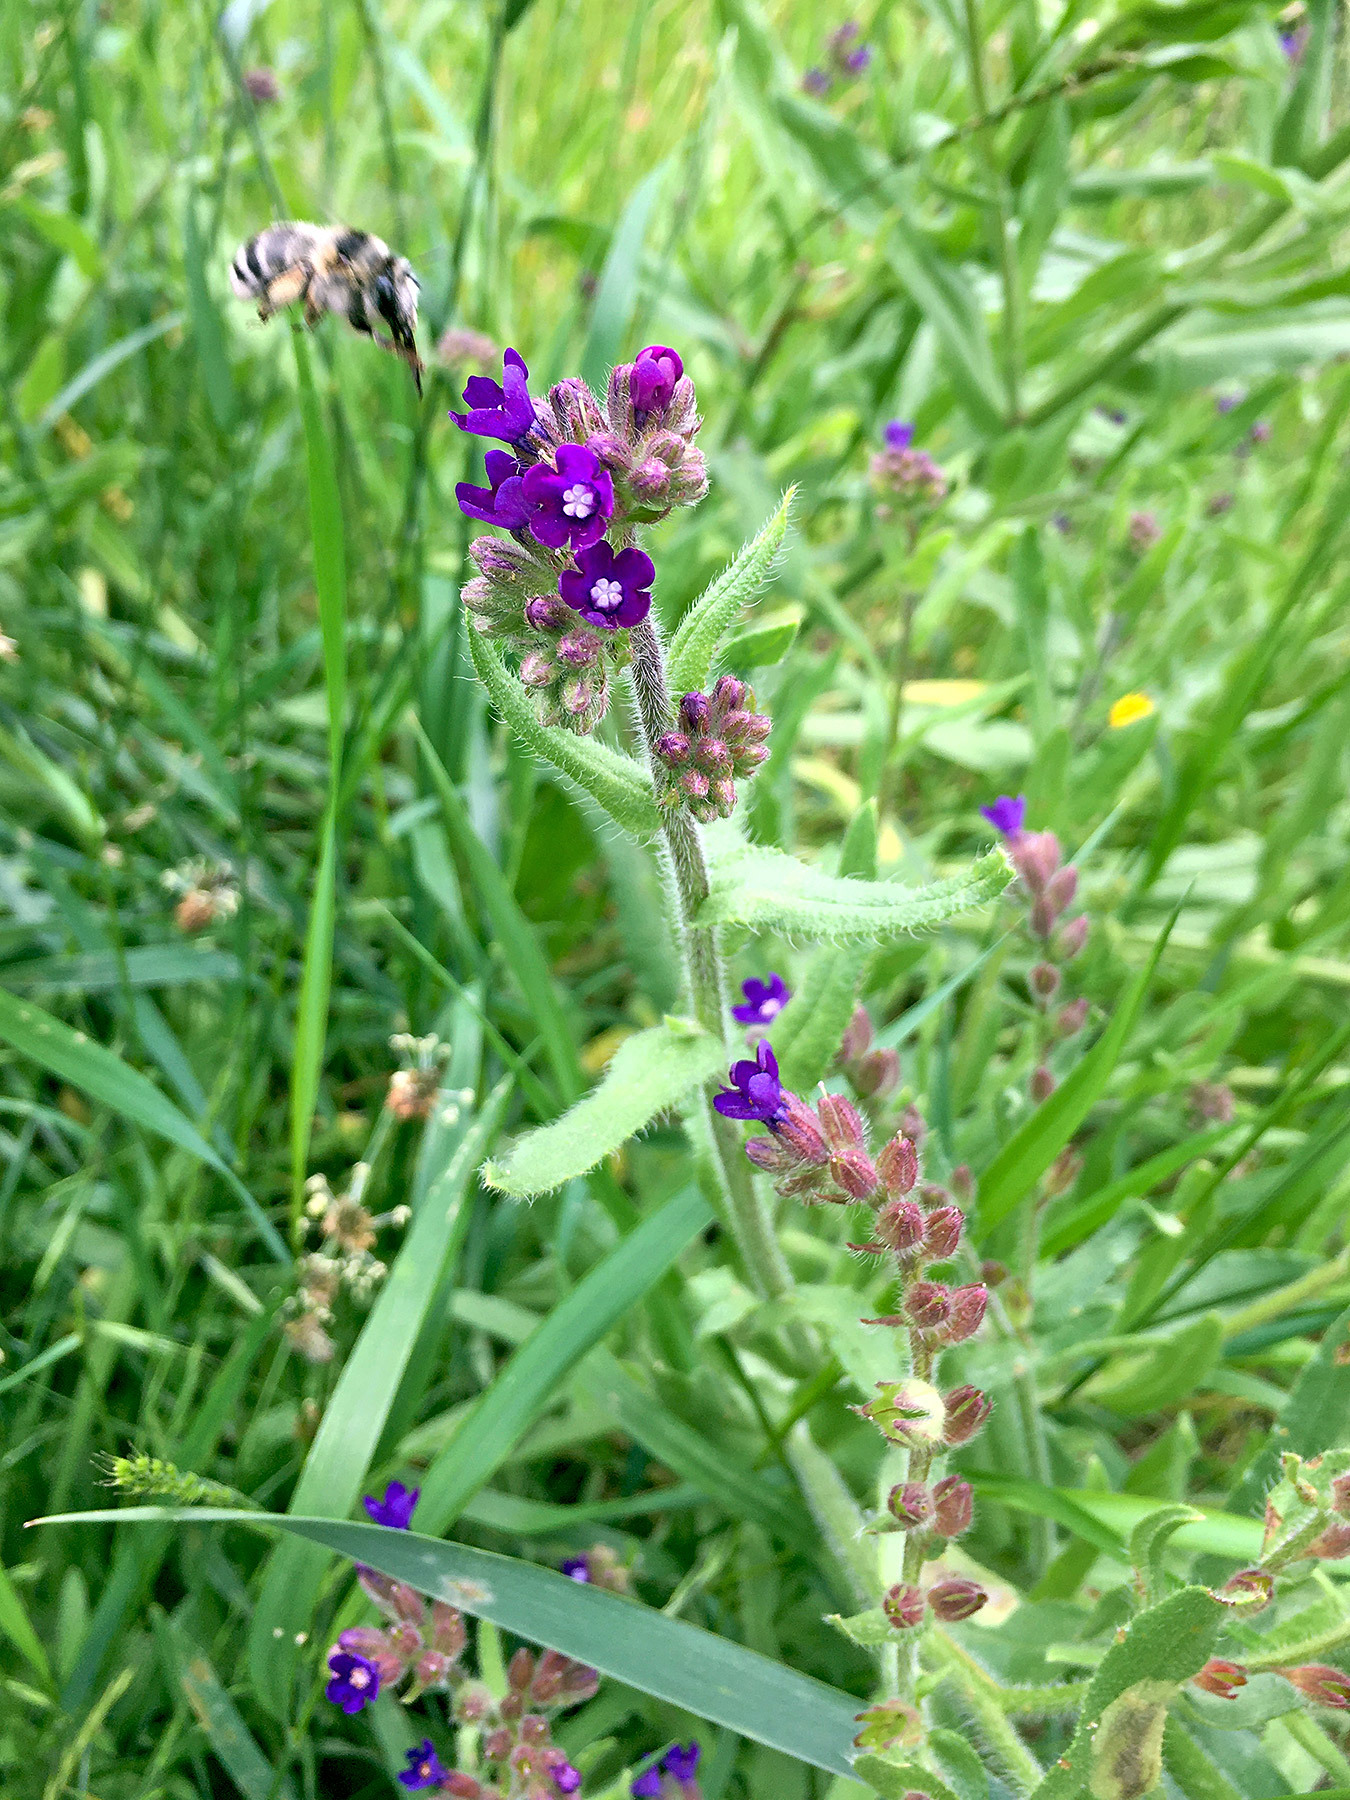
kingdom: Plantae
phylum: Tracheophyta
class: Magnoliopsida
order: Boraginales
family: Boraginaceae
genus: Anchusa
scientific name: Anchusa officinalis
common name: Alkanet
